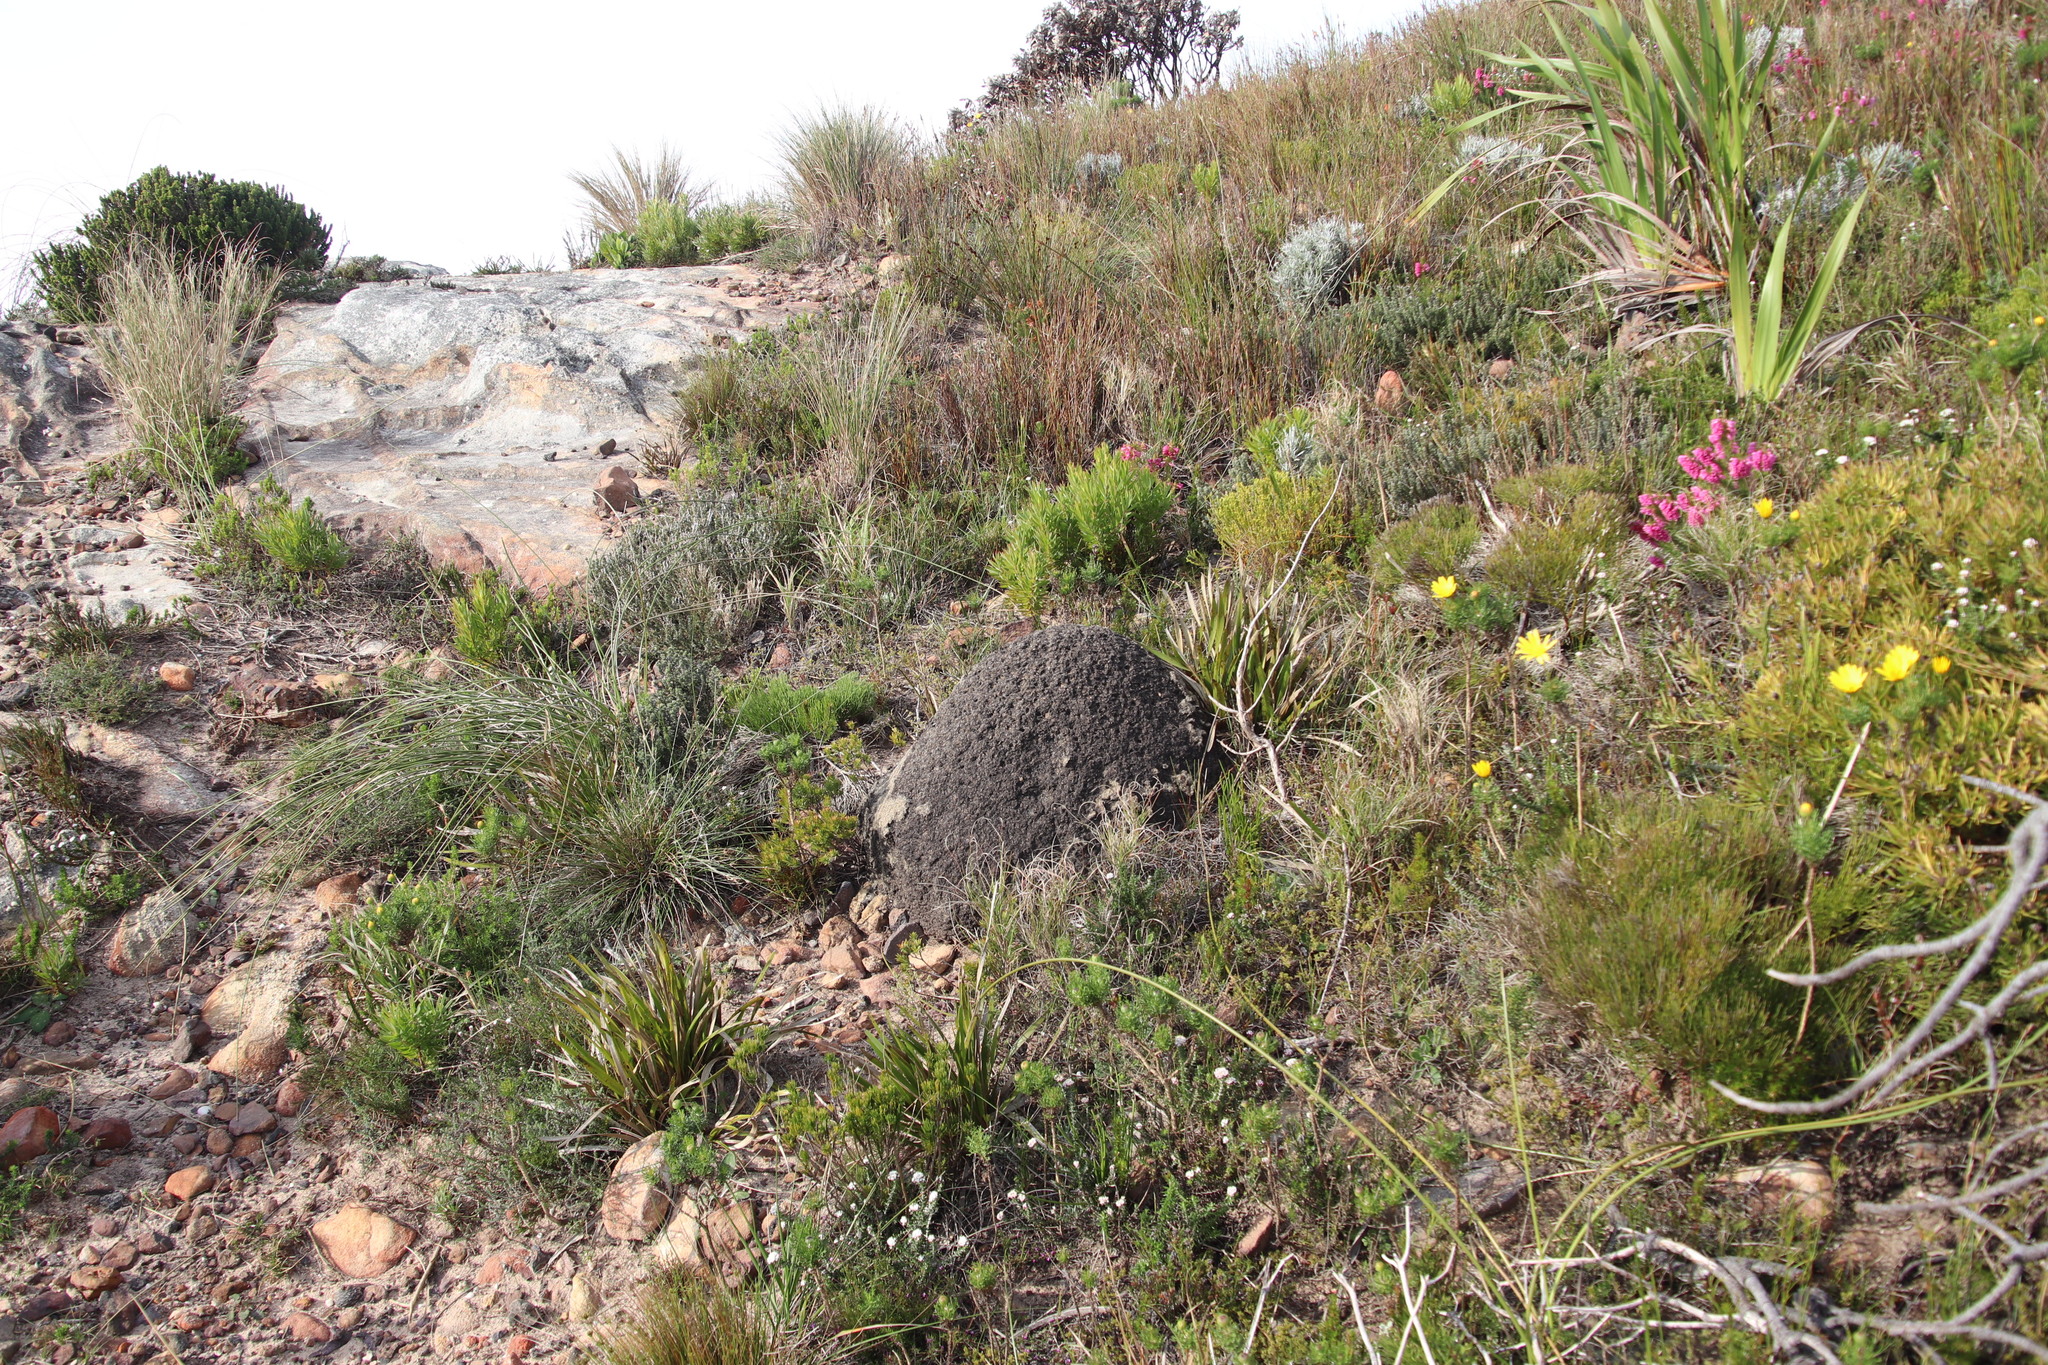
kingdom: Animalia
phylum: Arthropoda
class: Insecta
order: Blattodea
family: Termitidae
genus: Amitermes
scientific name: Amitermes hastatus
